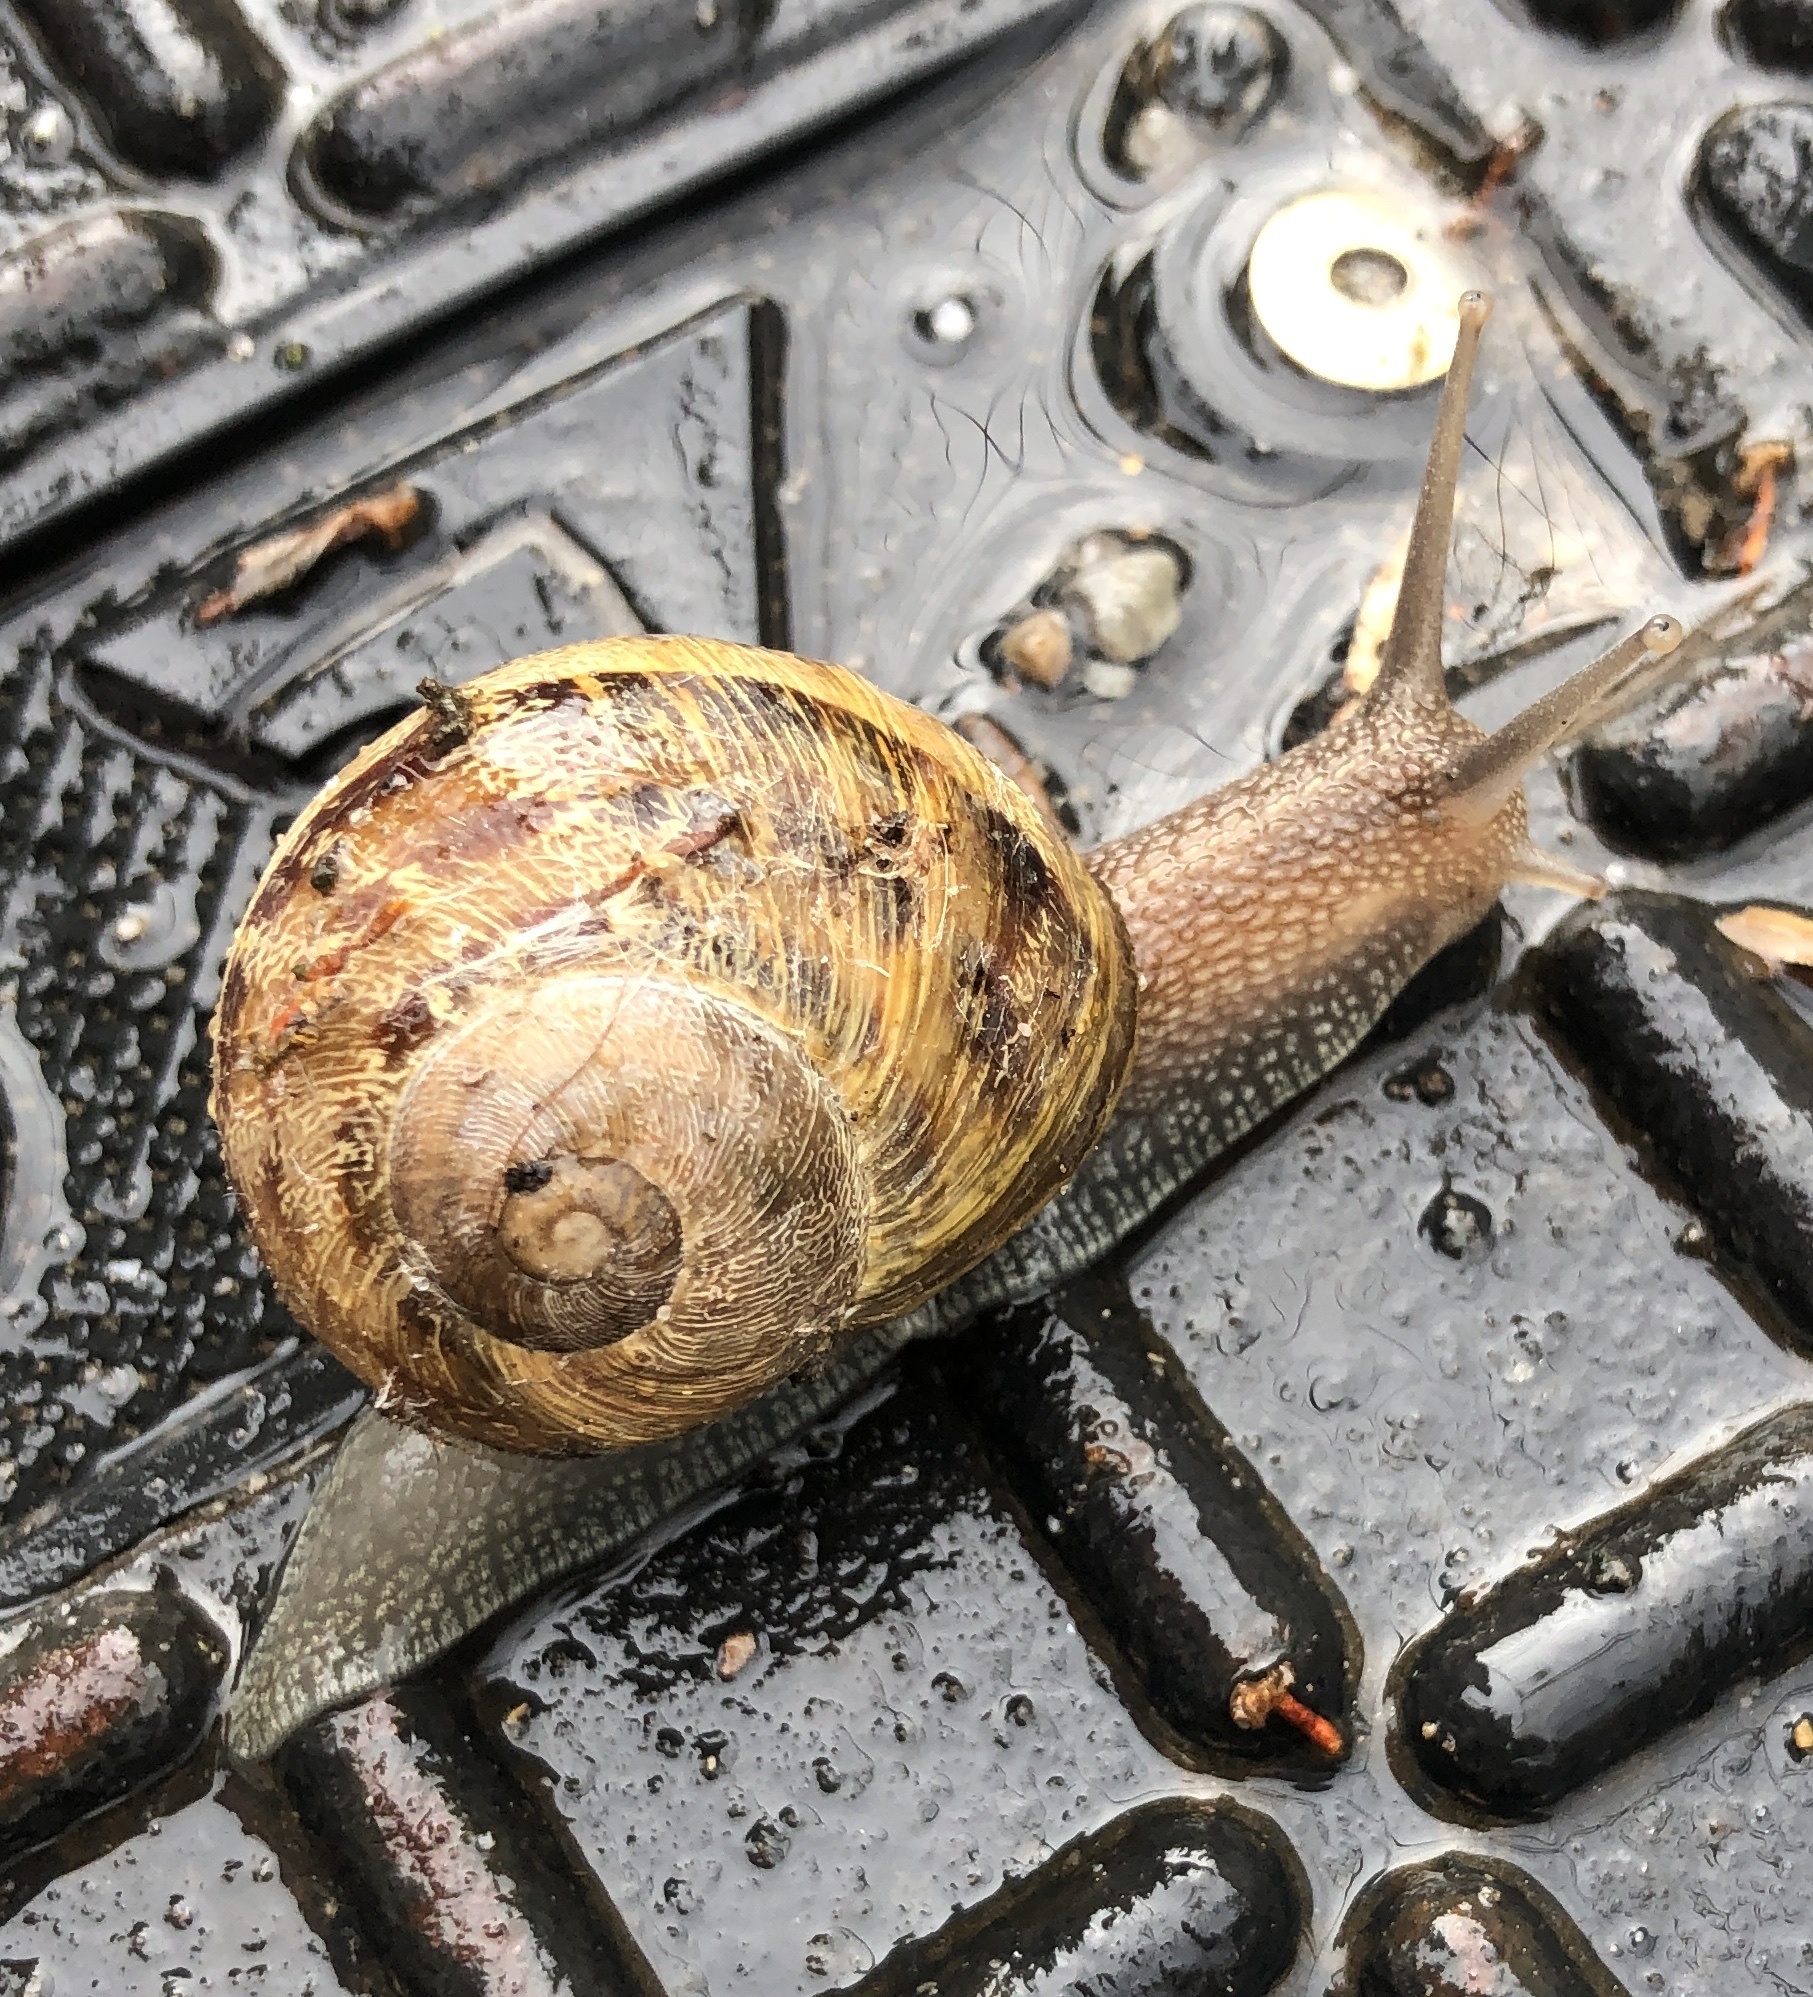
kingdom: Animalia
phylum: Mollusca
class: Gastropoda
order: Stylommatophora
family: Helicidae
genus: Cornu
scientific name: Cornu aspersum
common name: Brown garden snail
